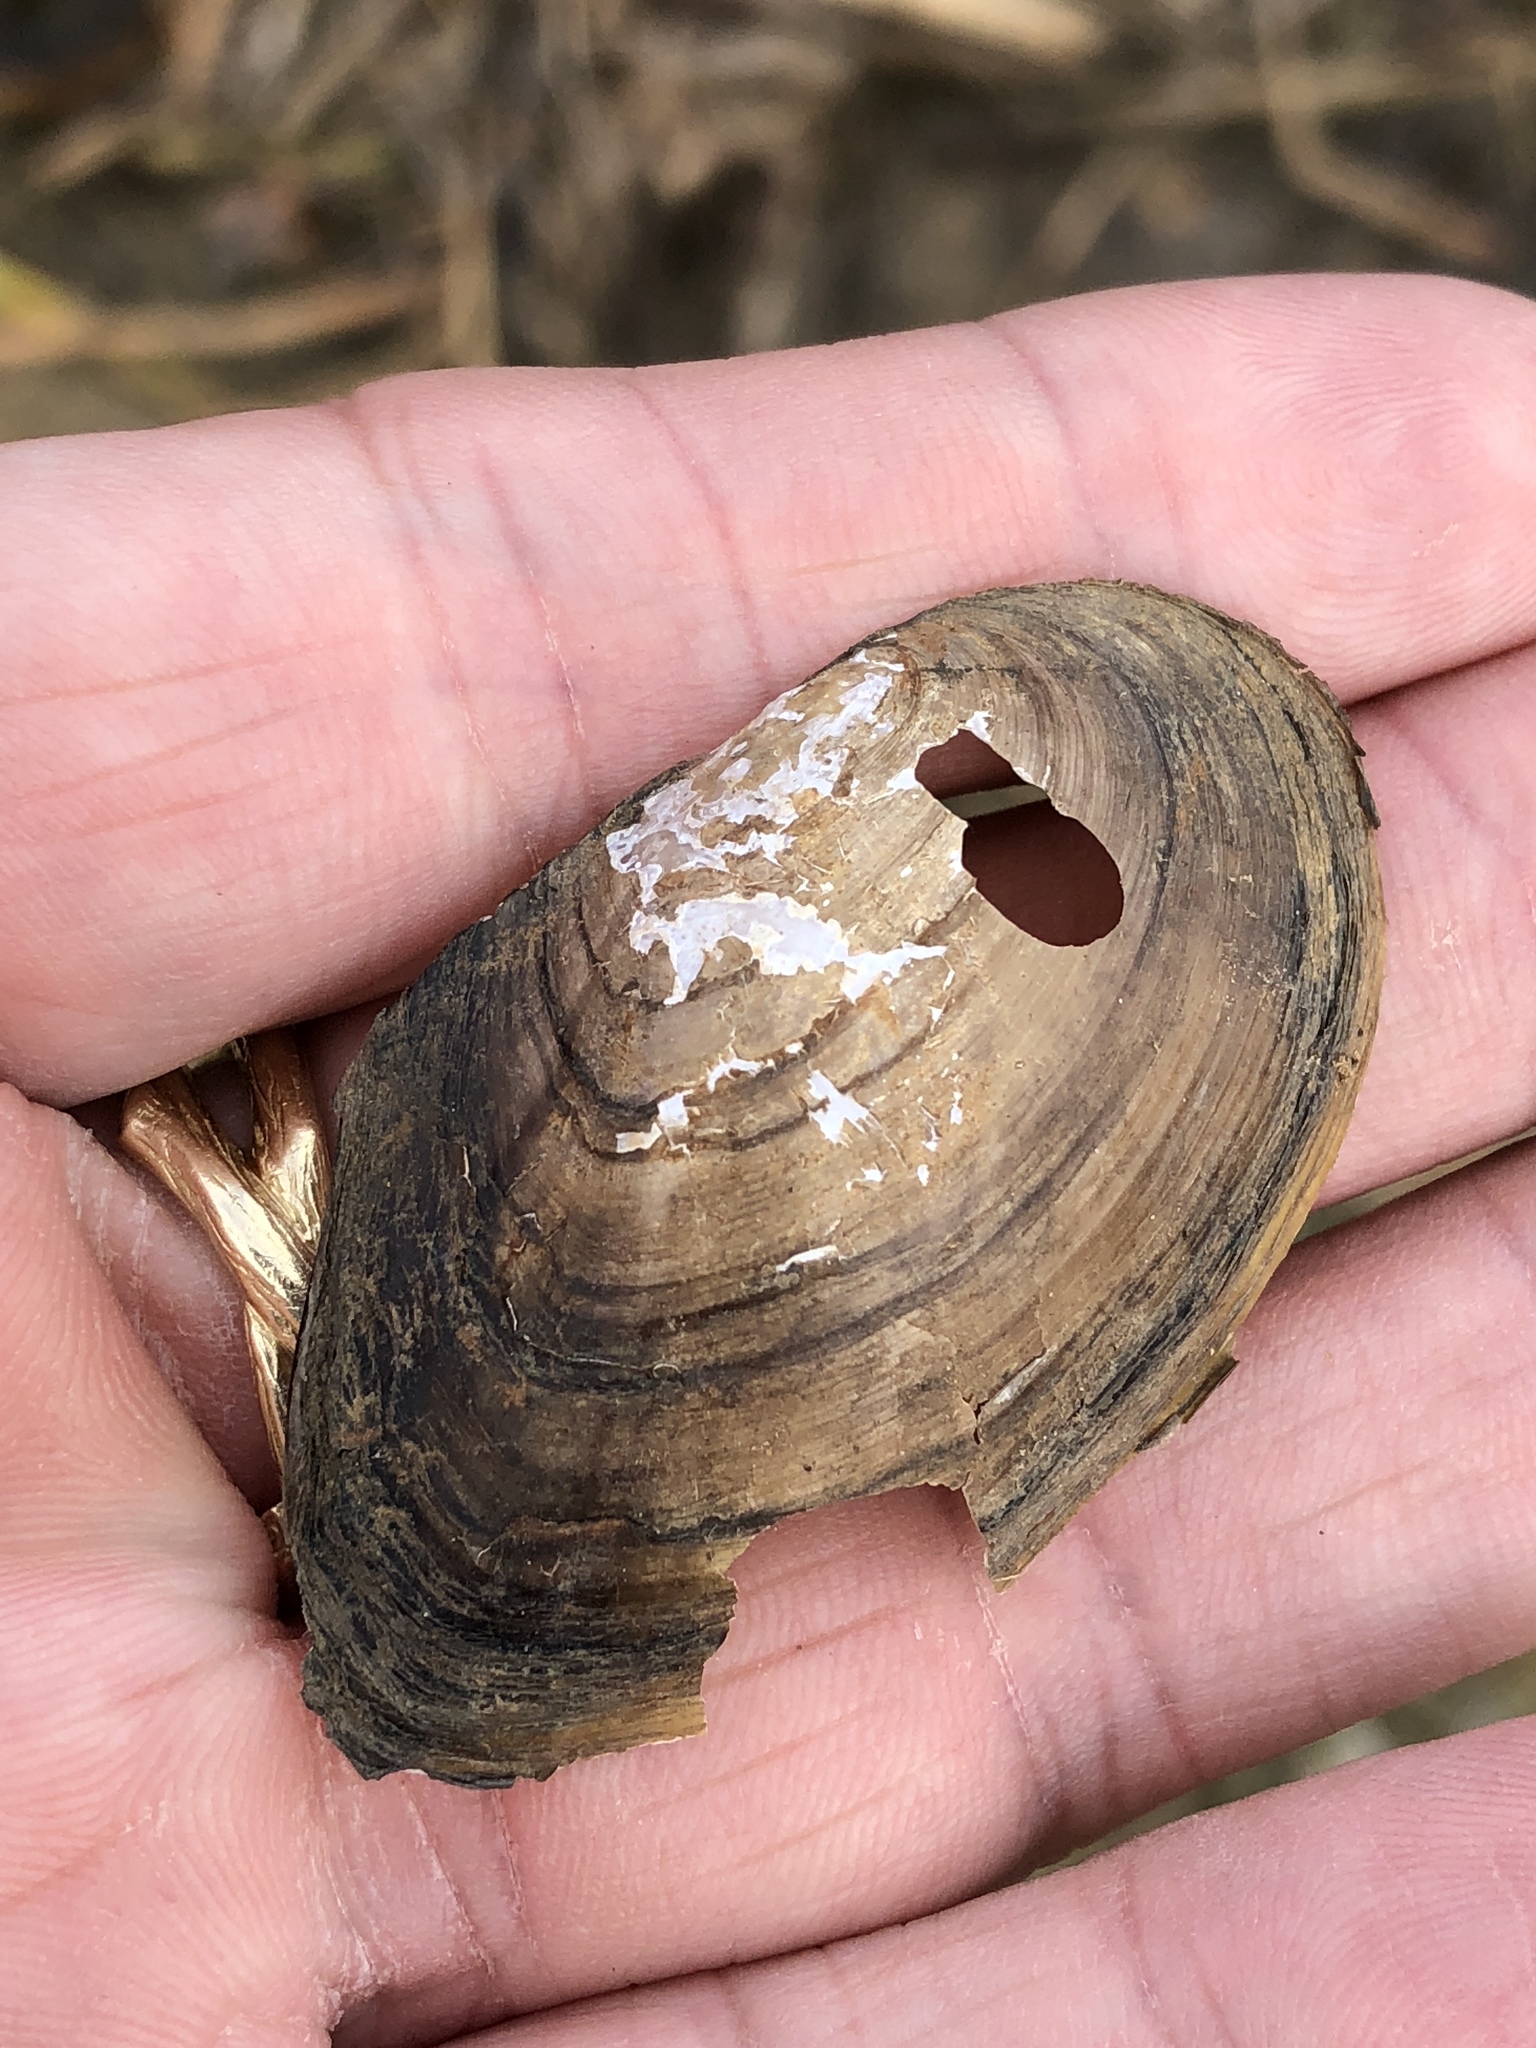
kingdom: Animalia
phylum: Mollusca
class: Bivalvia
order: Unionida
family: Unionidae
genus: Utterbackia
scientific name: Utterbackia imbecillis
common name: Paper pondshell
